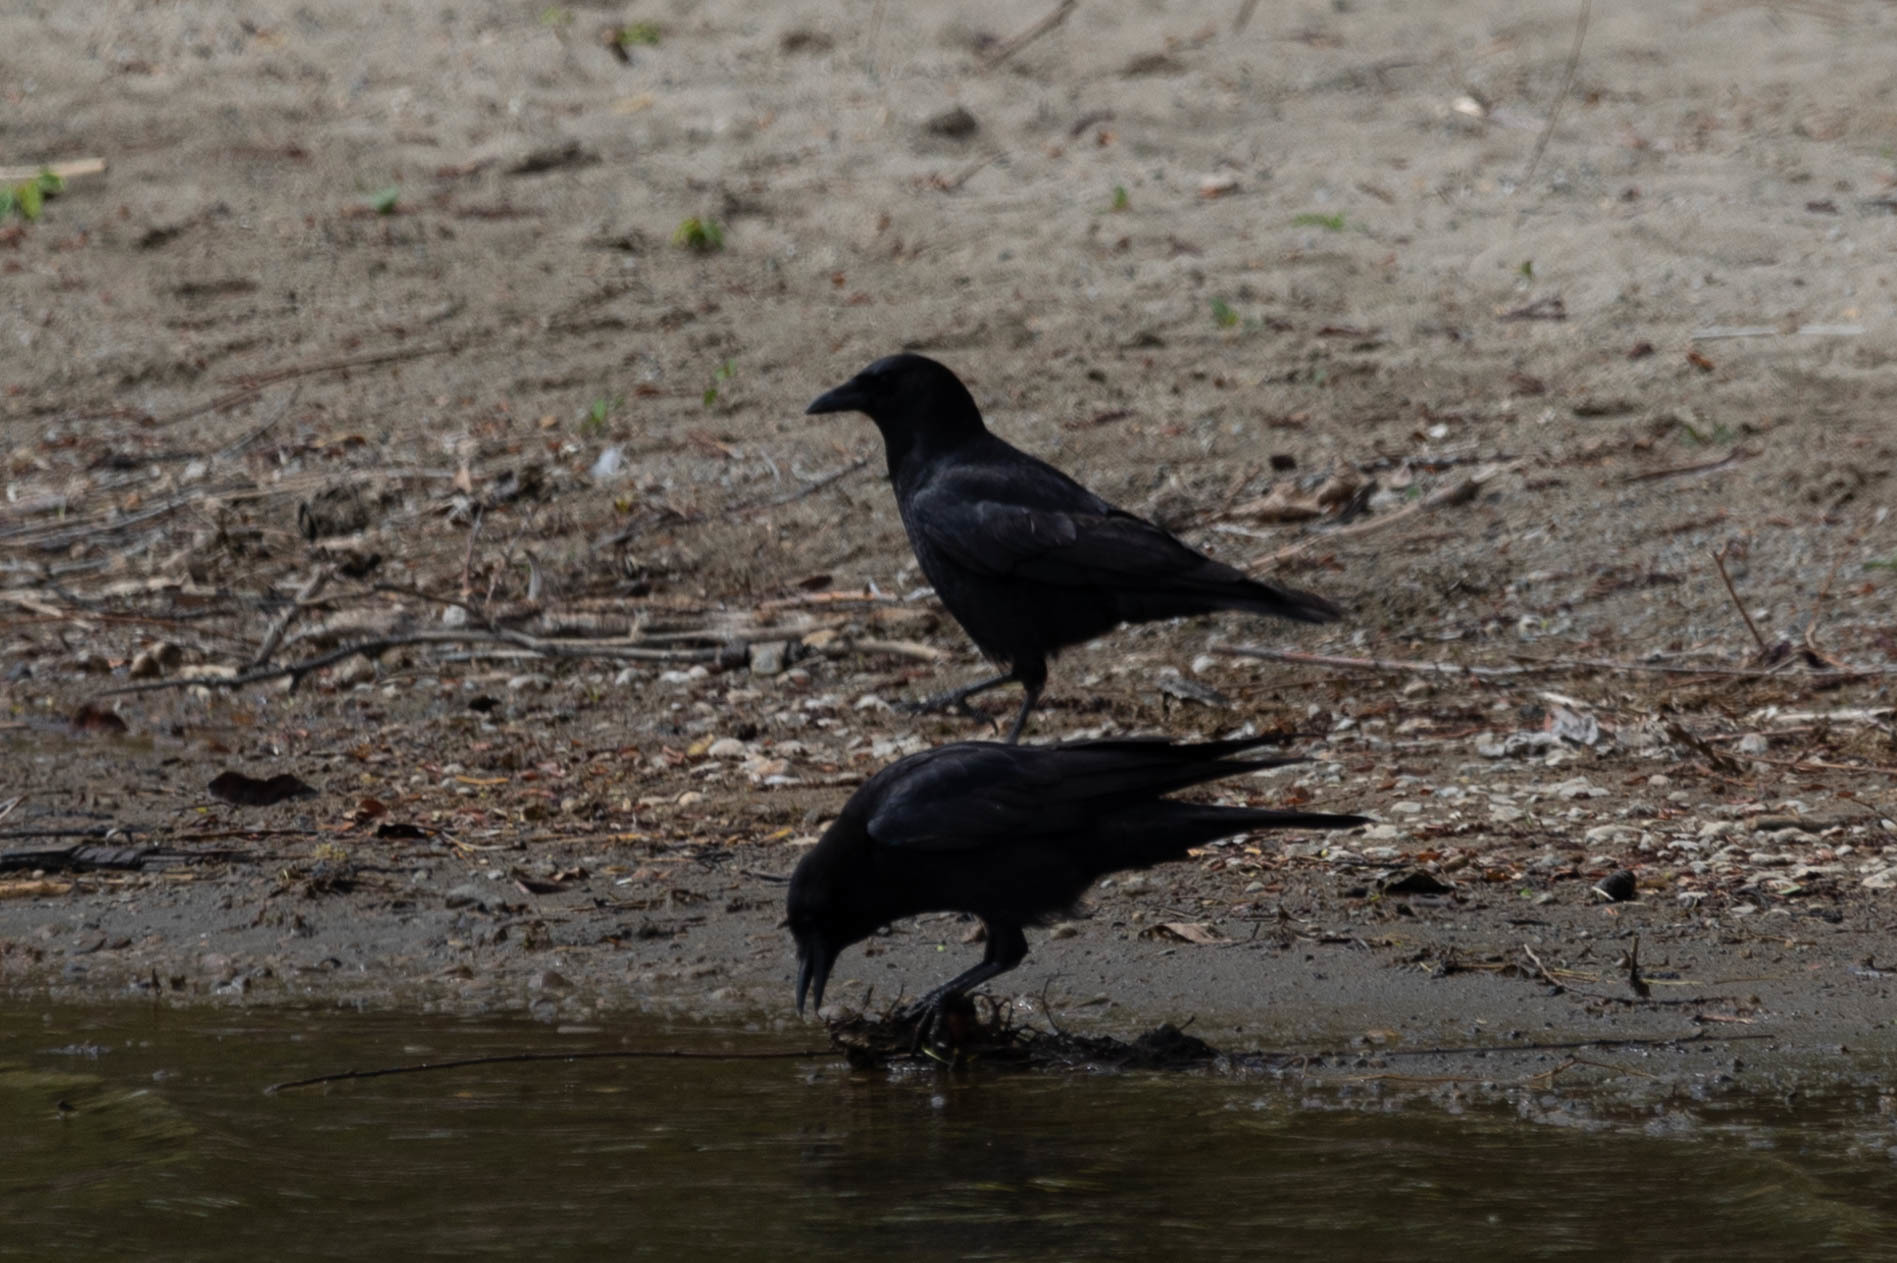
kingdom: Animalia
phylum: Chordata
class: Aves
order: Passeriformes
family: Corvidae
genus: Corvus
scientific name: Corvus brachyrhynchos
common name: American crow
